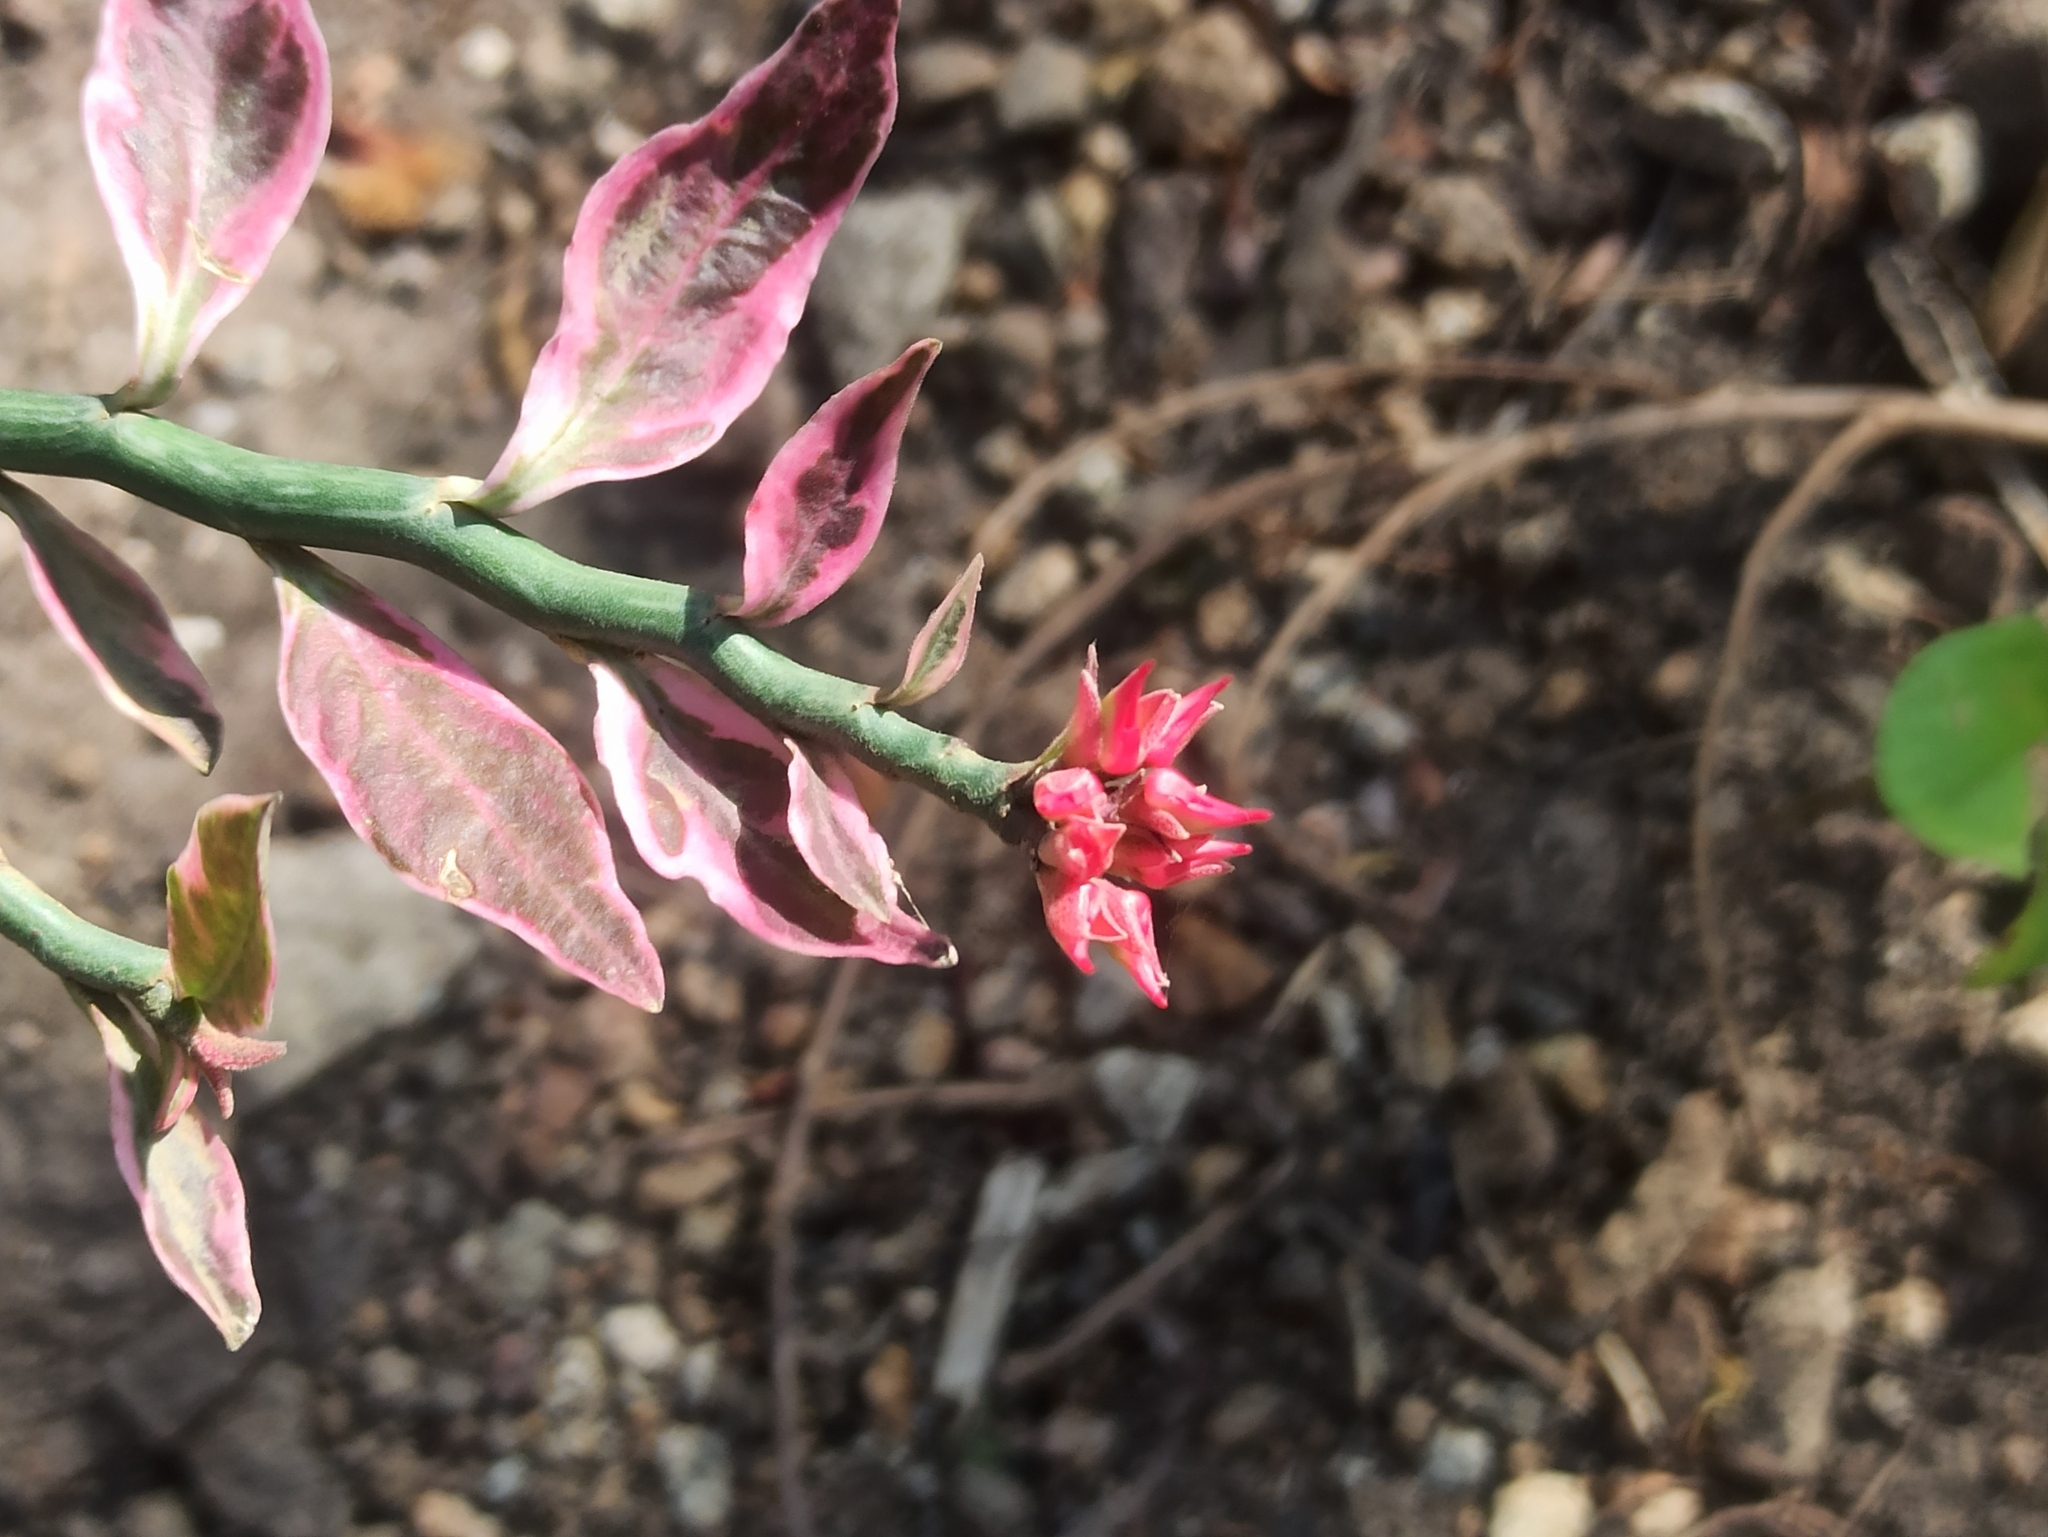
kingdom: Plantae
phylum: Tracheophyta
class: Magnoliopsida
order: Malpighiales
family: Euphorbiaceae
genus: Euphorbia
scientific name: Euphorbia tithymaloides
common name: Slipperplant
